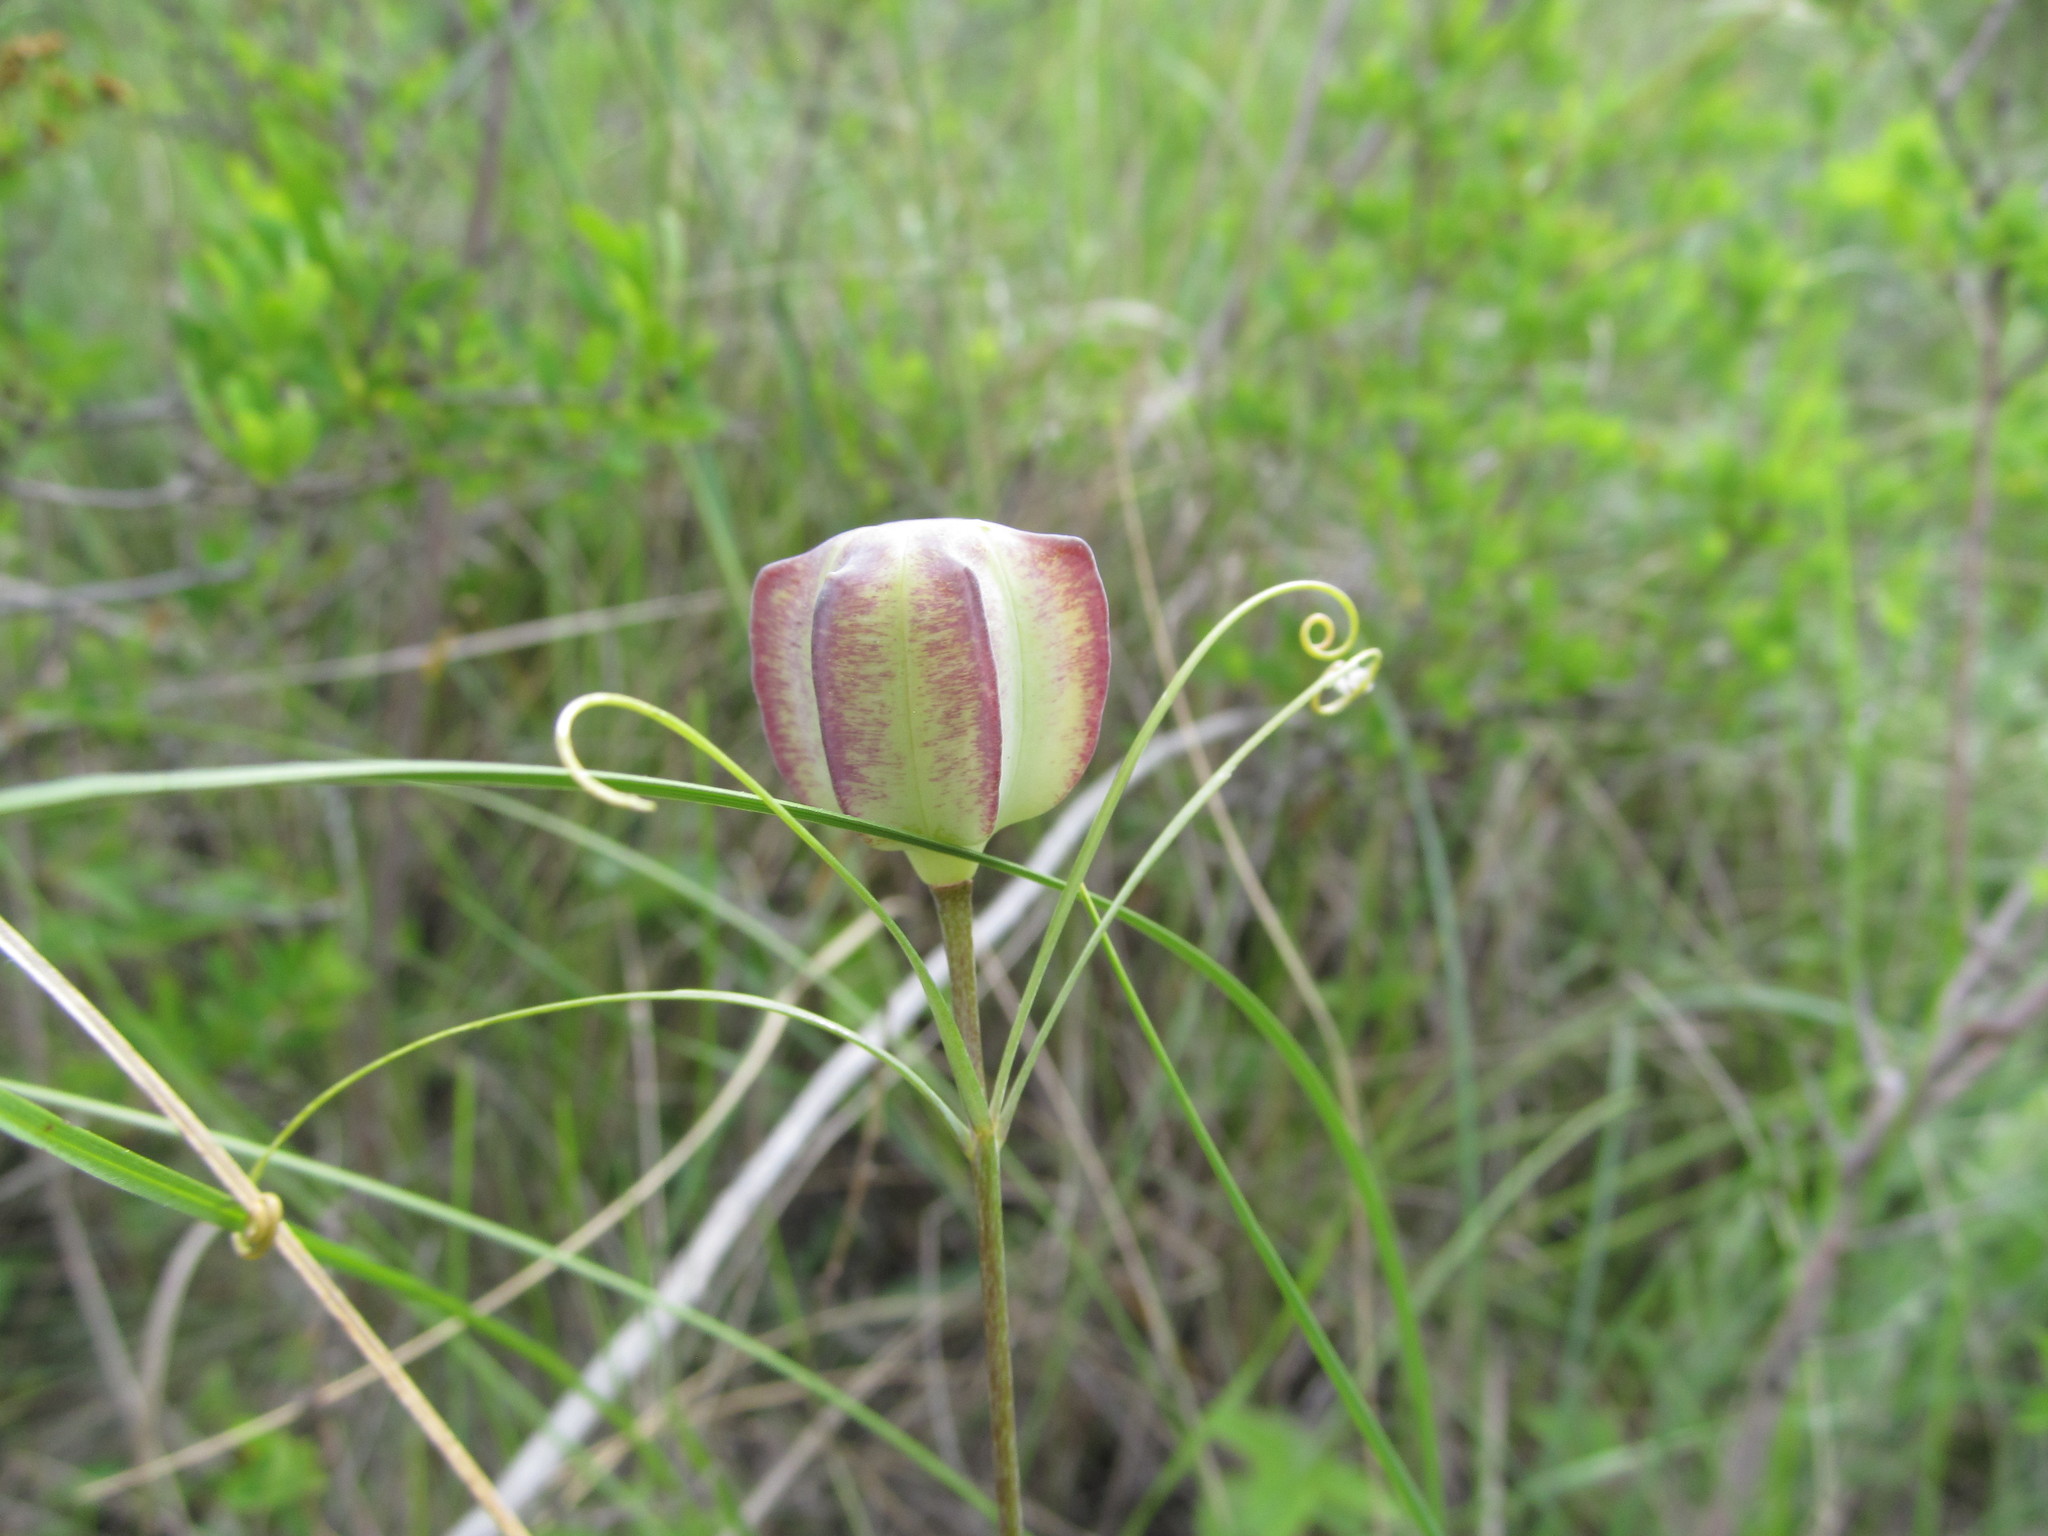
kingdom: Plantae
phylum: Tracheophyta
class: Liliopsida
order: Liliales
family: Liliaceae
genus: Fritillaria
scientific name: Fritillaria ruthenica
